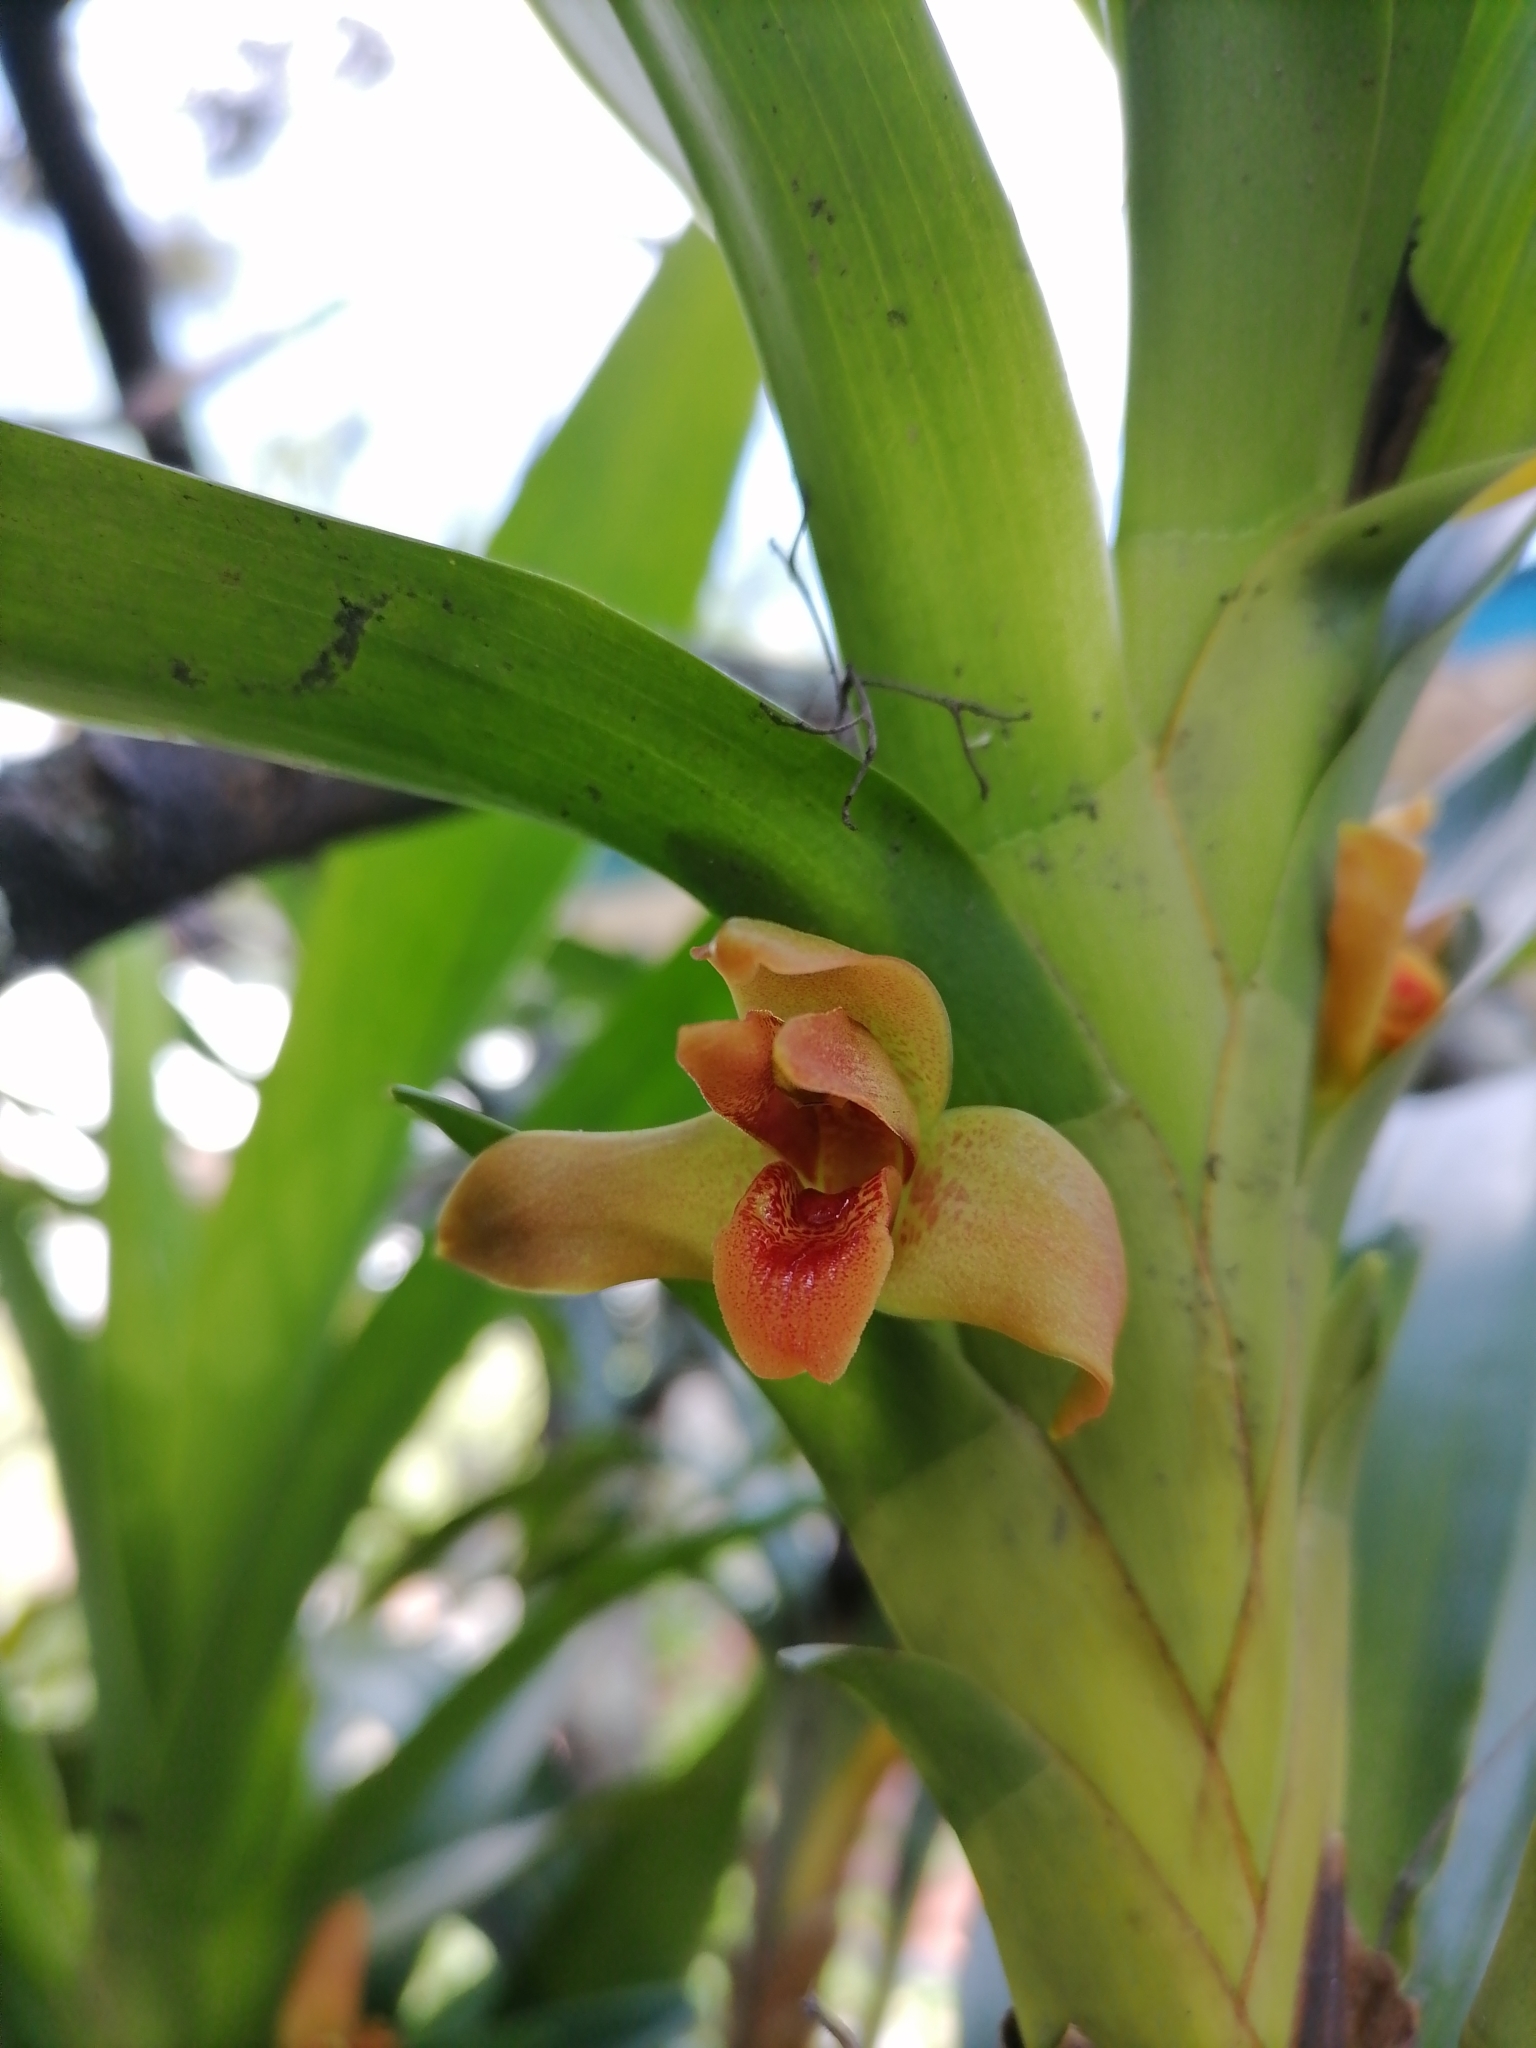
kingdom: Plantae
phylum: Tracheophyta
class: Liliopsida
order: Asparagales
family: Orchidaceae
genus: Maxillaria
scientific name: Maxillaria elatior
